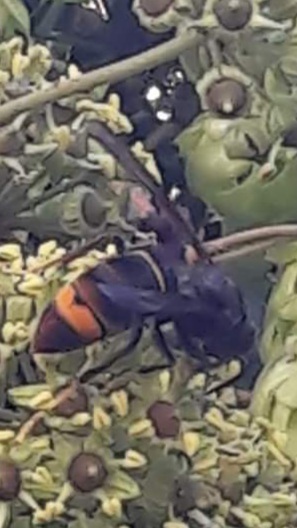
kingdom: Animalia
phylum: Arthropoda
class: Insecta
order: Hymenoptera
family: Vespidae
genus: Vespa
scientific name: Vespa velutina
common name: Asian hornet
